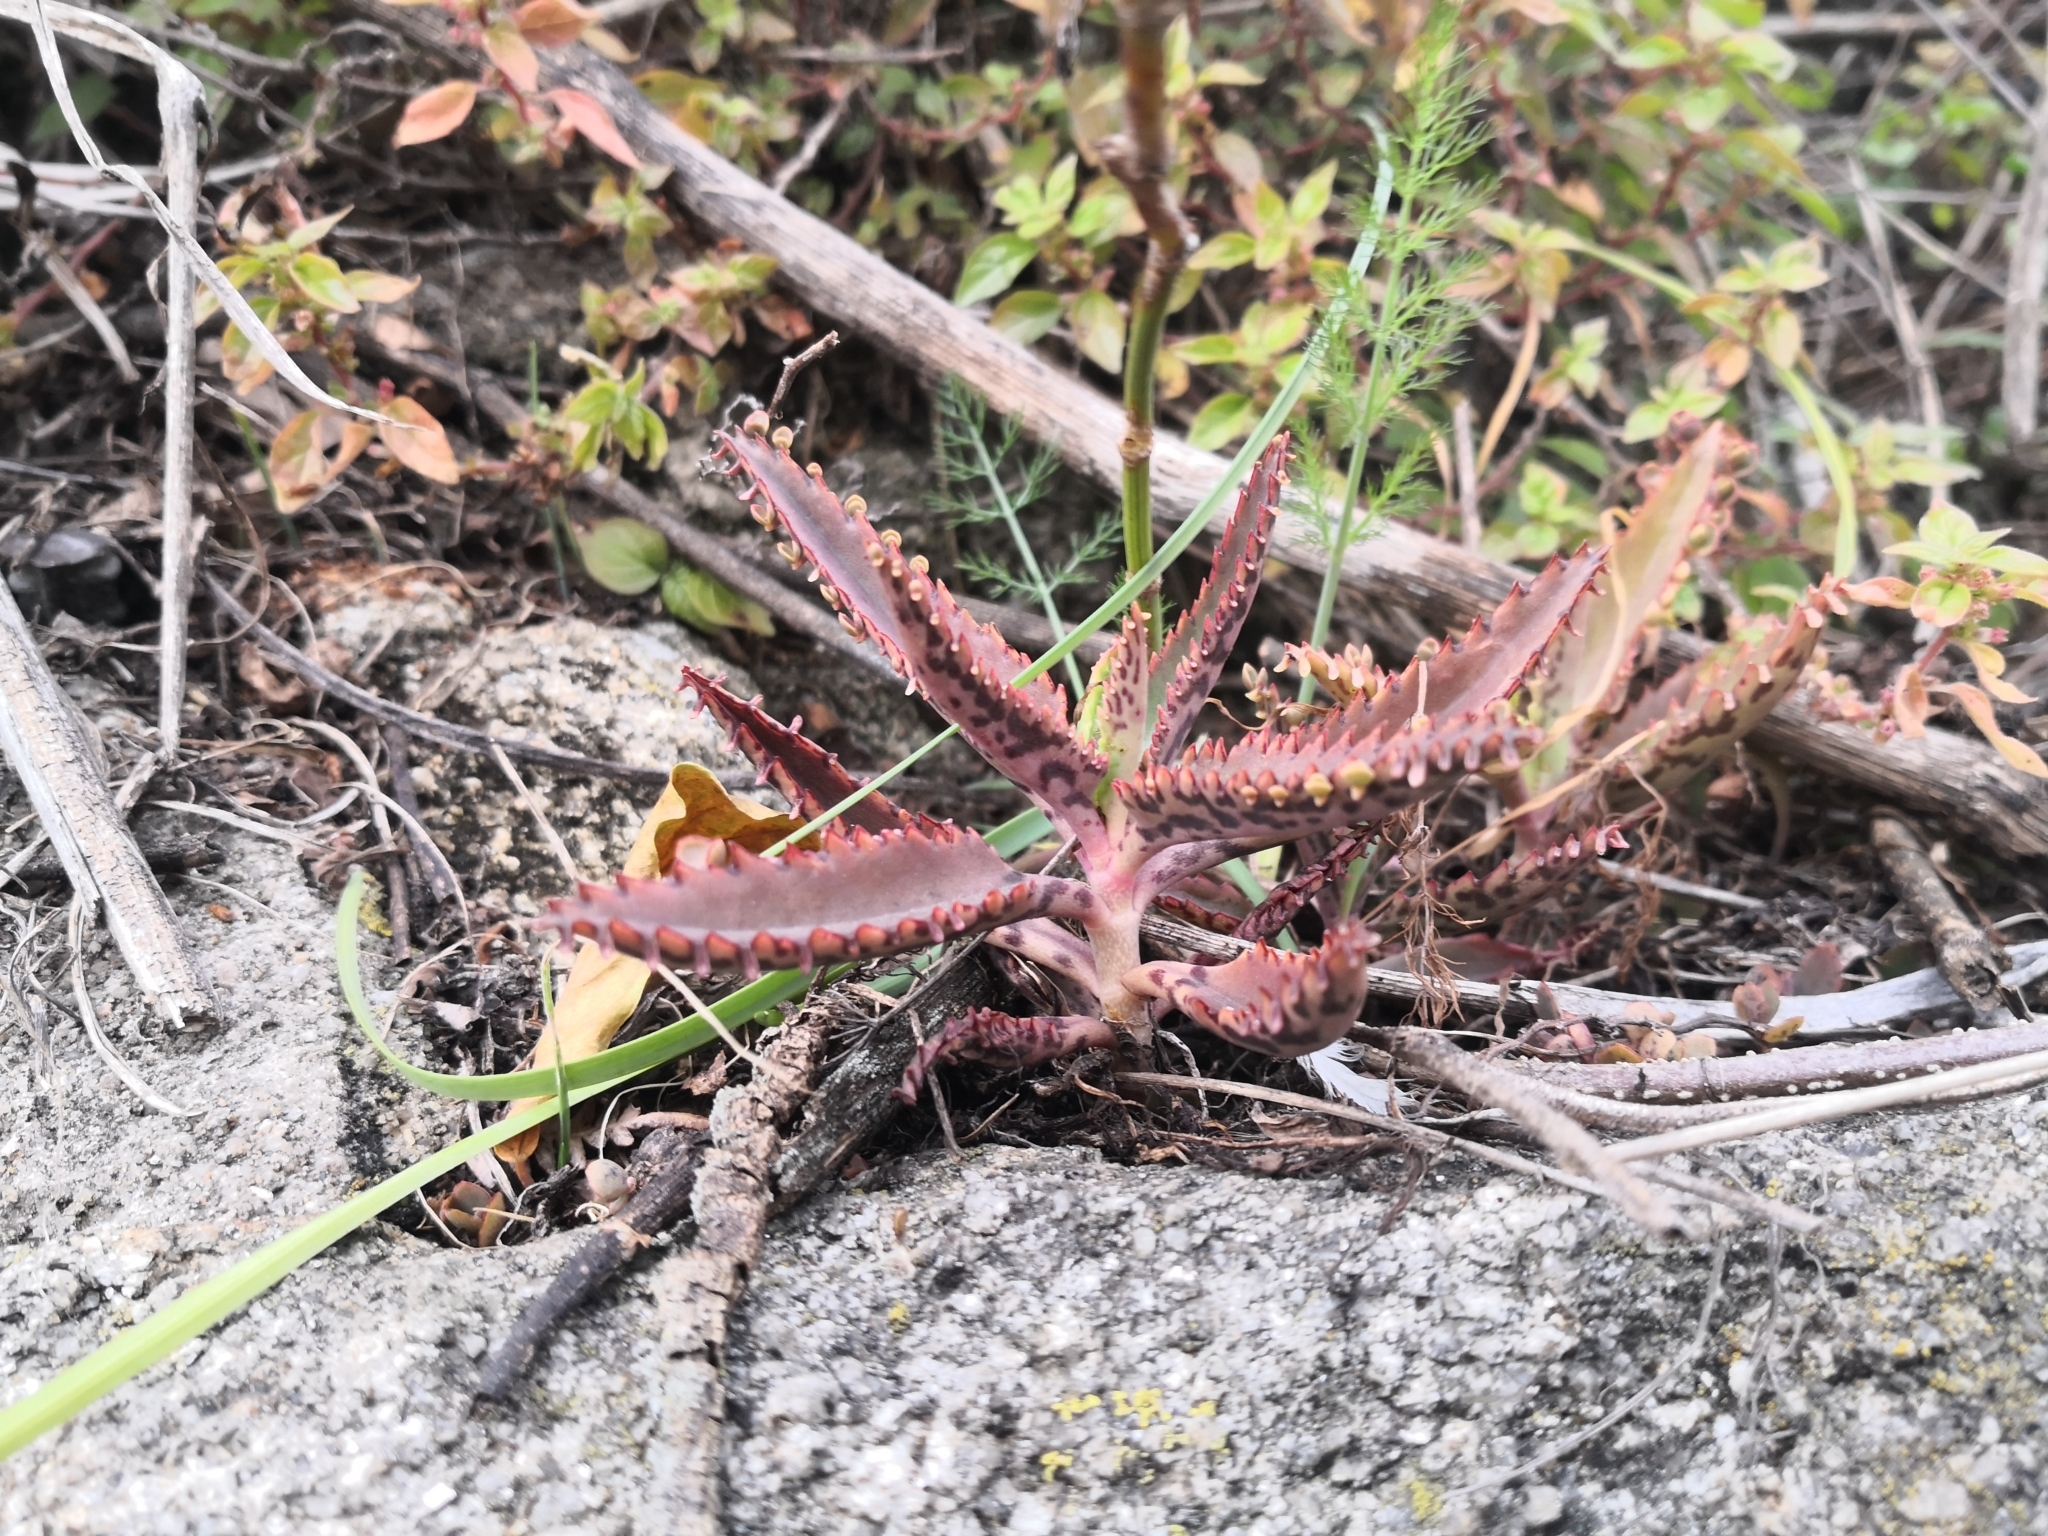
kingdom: Plantae
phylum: Tracheophyta
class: Magnoliopsida
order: Saxifragales
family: Crassulaceae
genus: Kalanchoe
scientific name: Kalanchoe houghtonii
